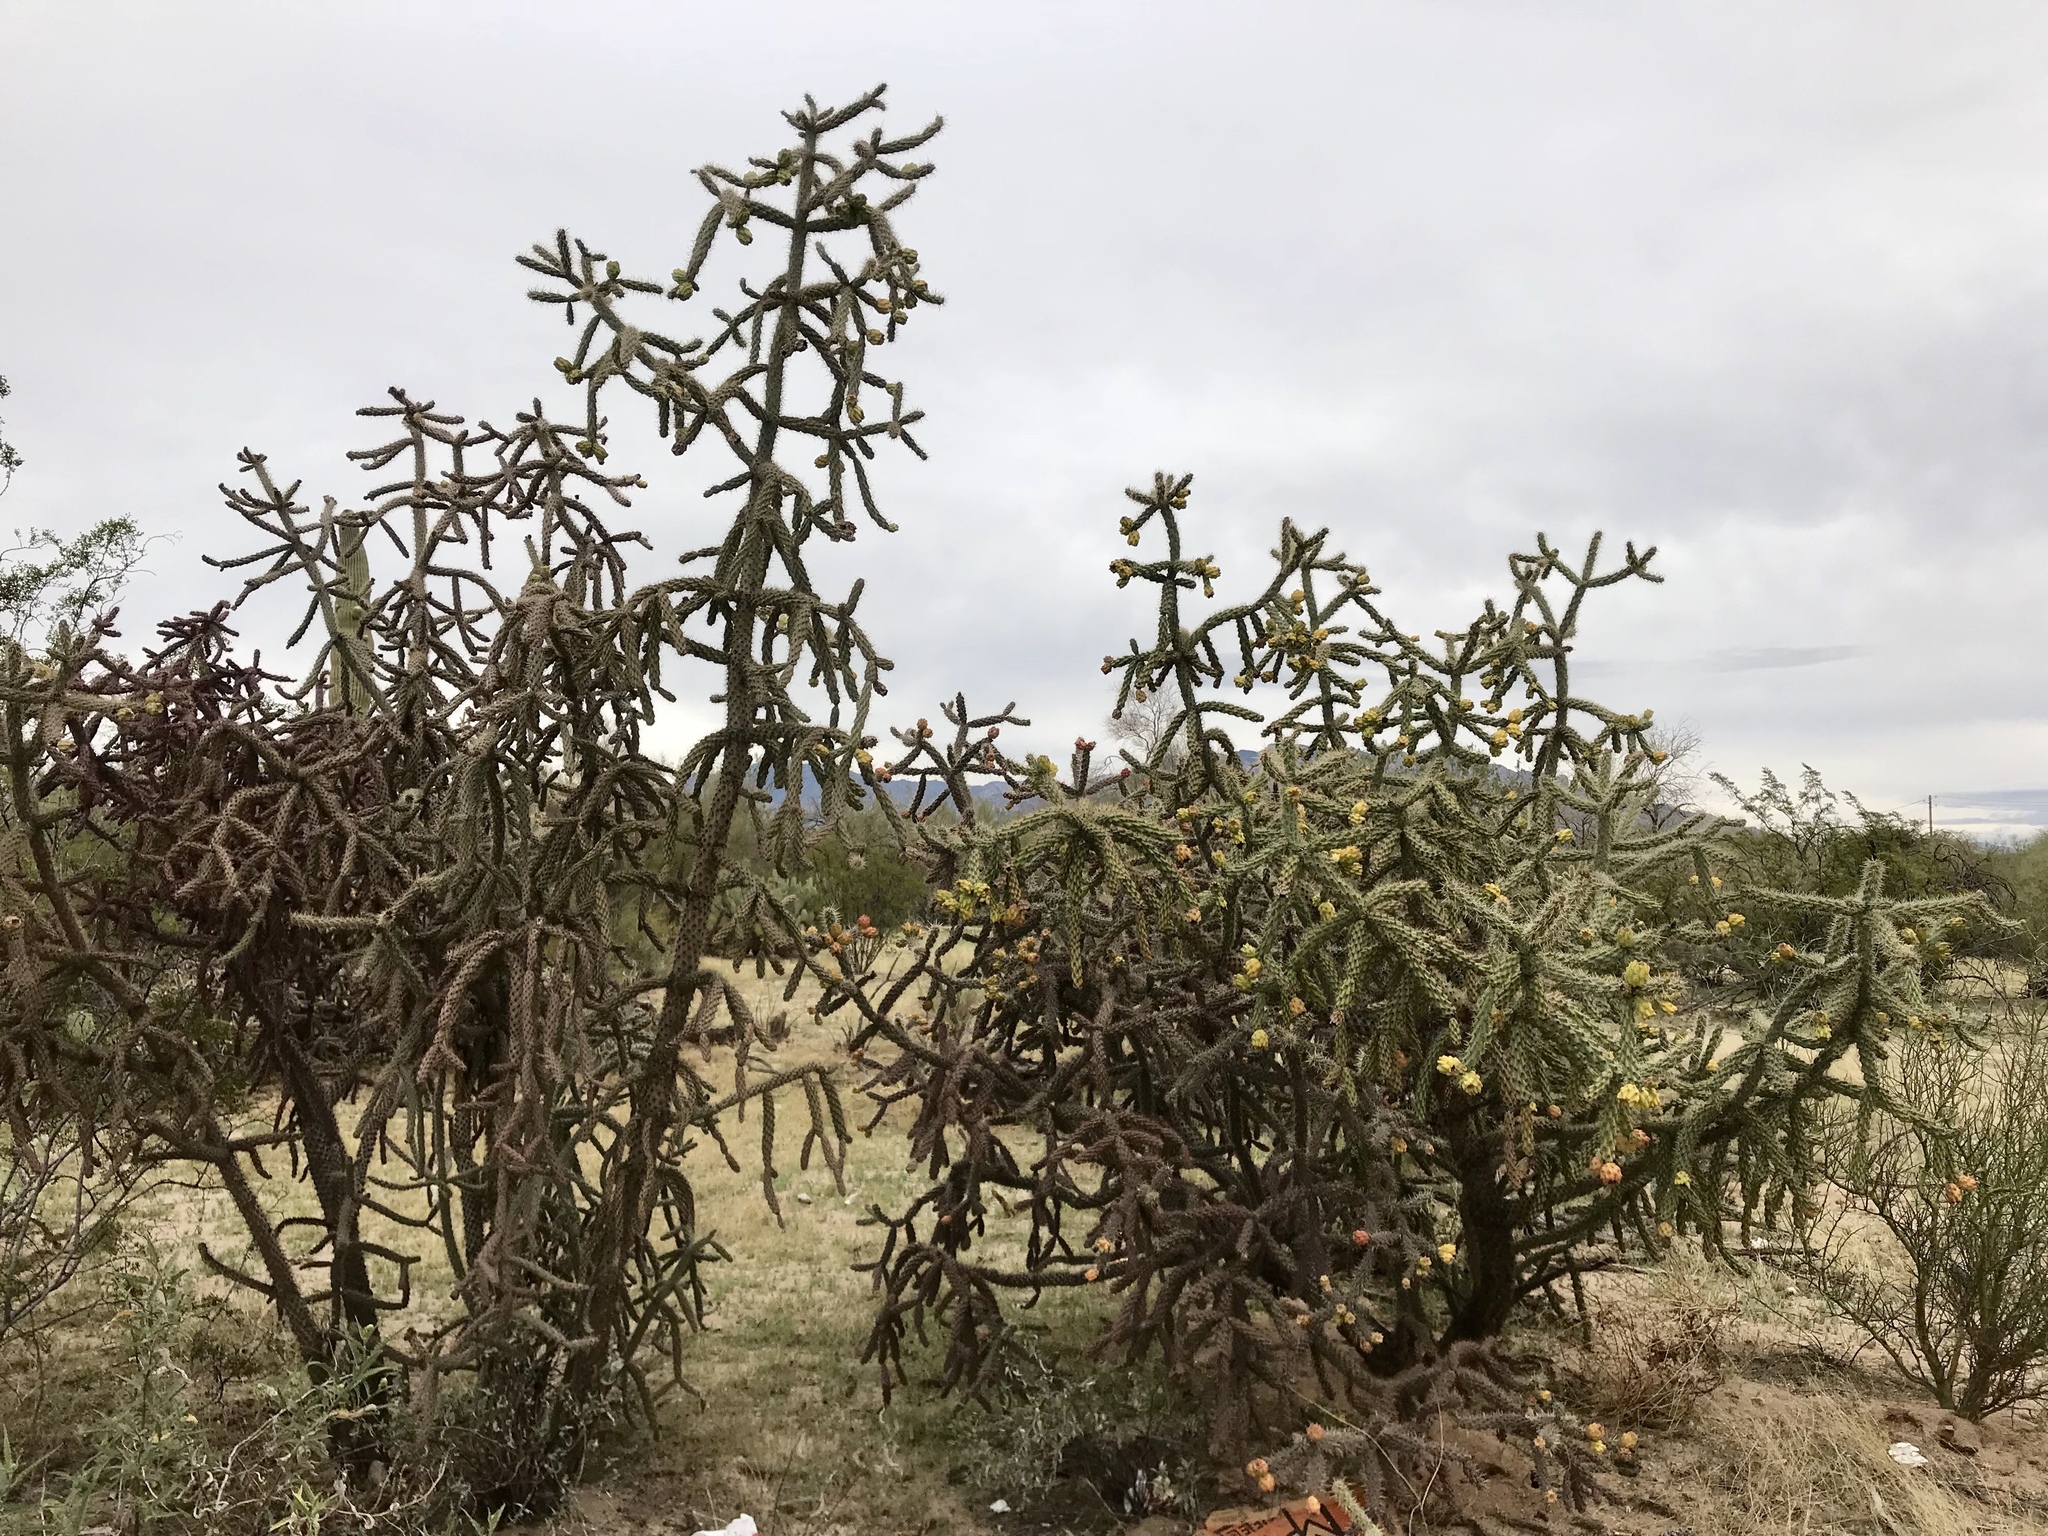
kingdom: Plantae
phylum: Tracheophyta
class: Magnoliopsida
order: Caryophyllales
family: Cactaceae
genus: Cylindropuntia
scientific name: Cylindropuntia imbricata
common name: Candelabrum cactus
